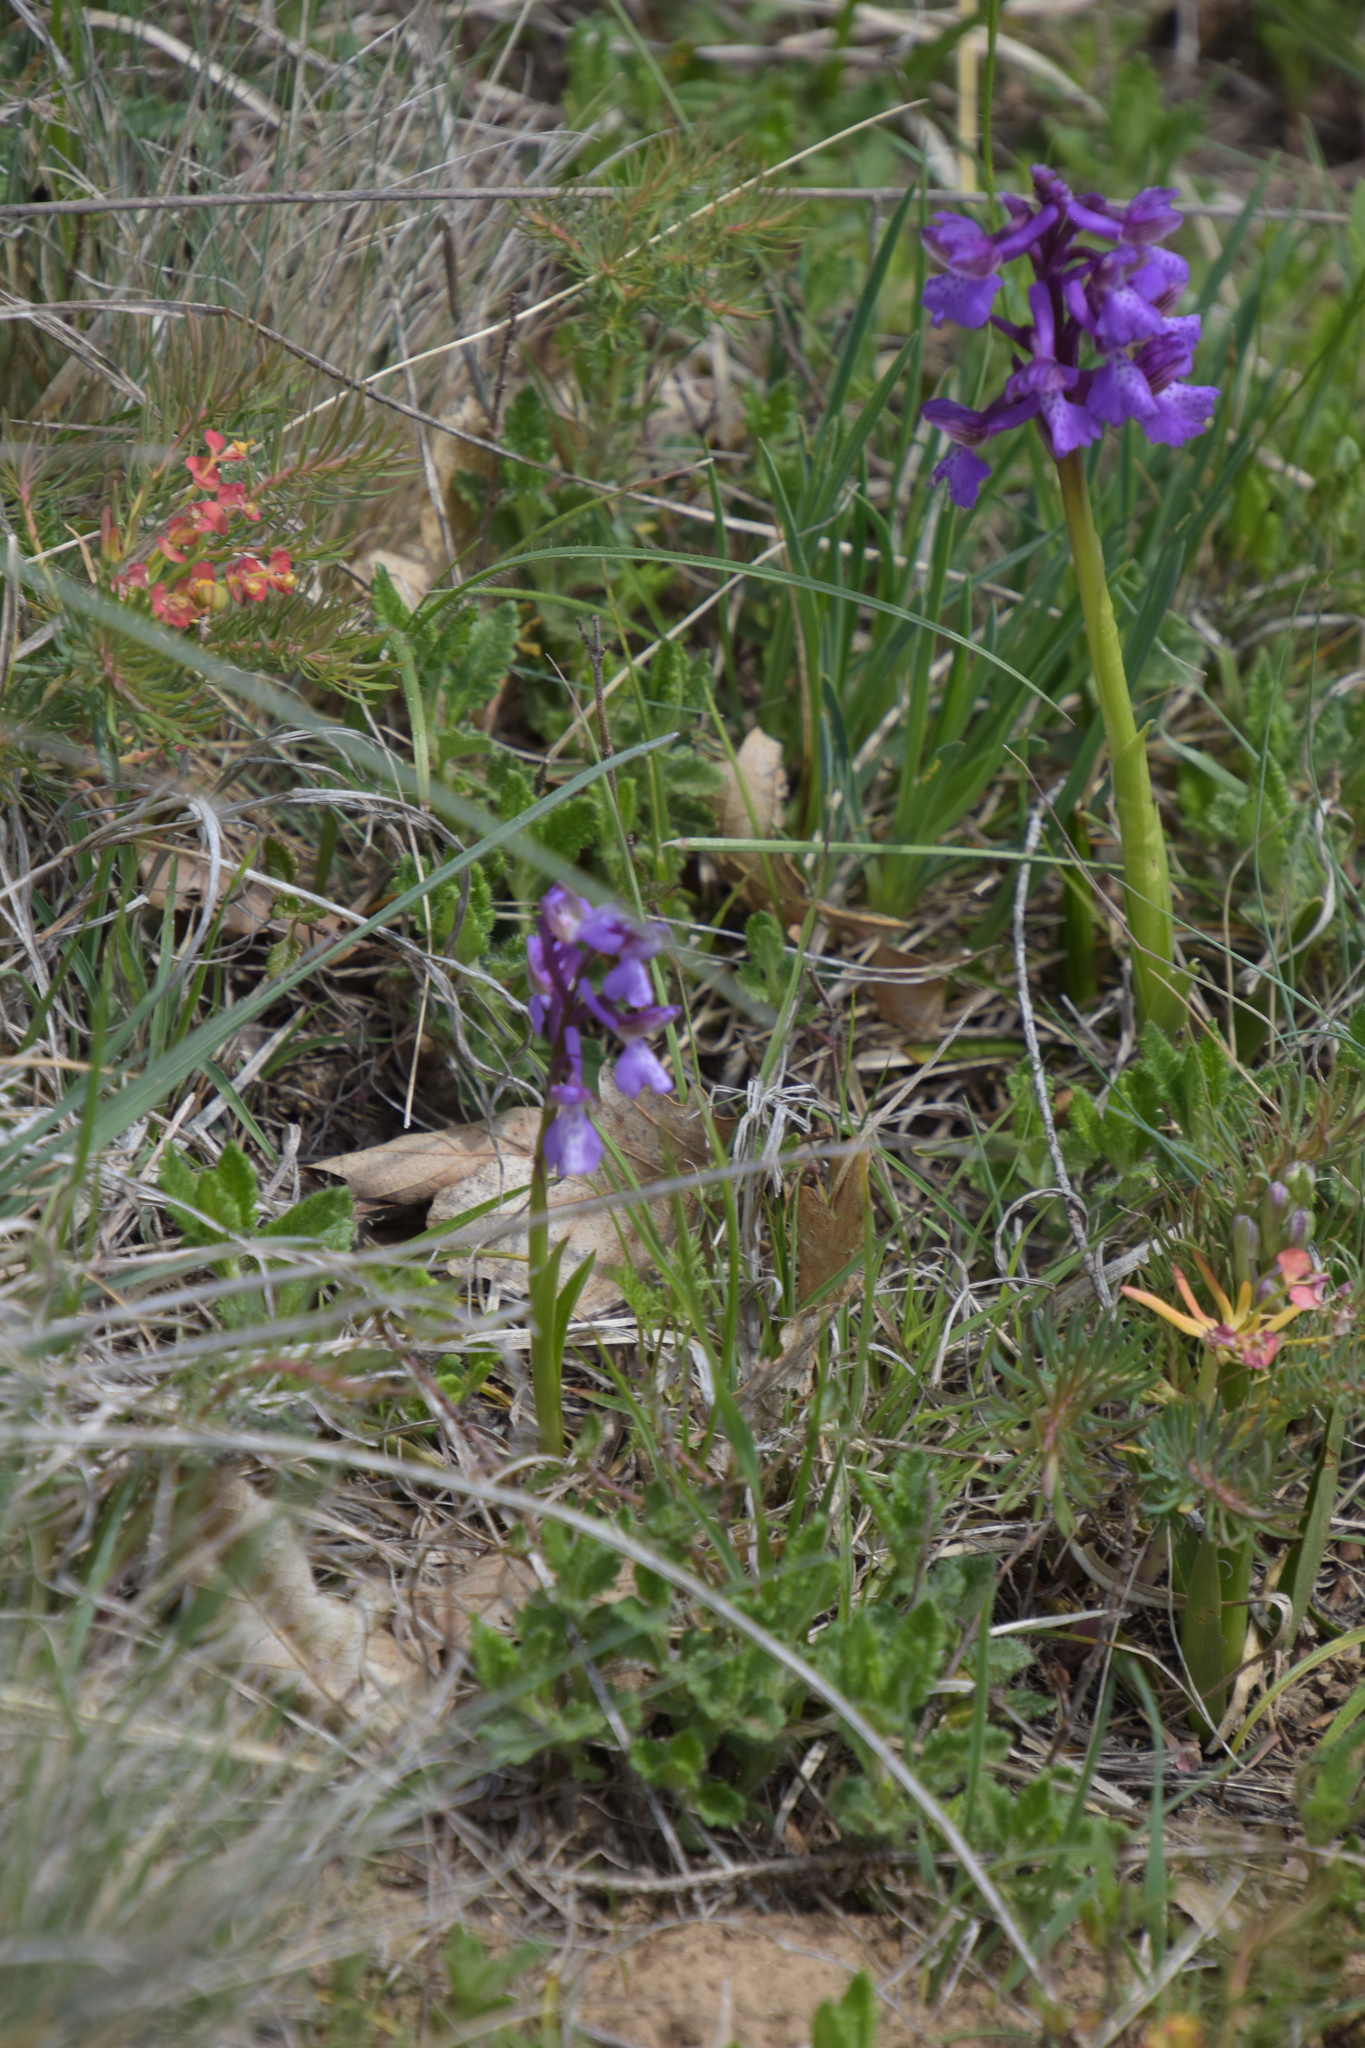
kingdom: Plantae
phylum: Tracheophyta
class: Liliopsida
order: Asparagales
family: Orchidaceae
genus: Anacamptis
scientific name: Anacamptis morio
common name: Green-winged orchid
